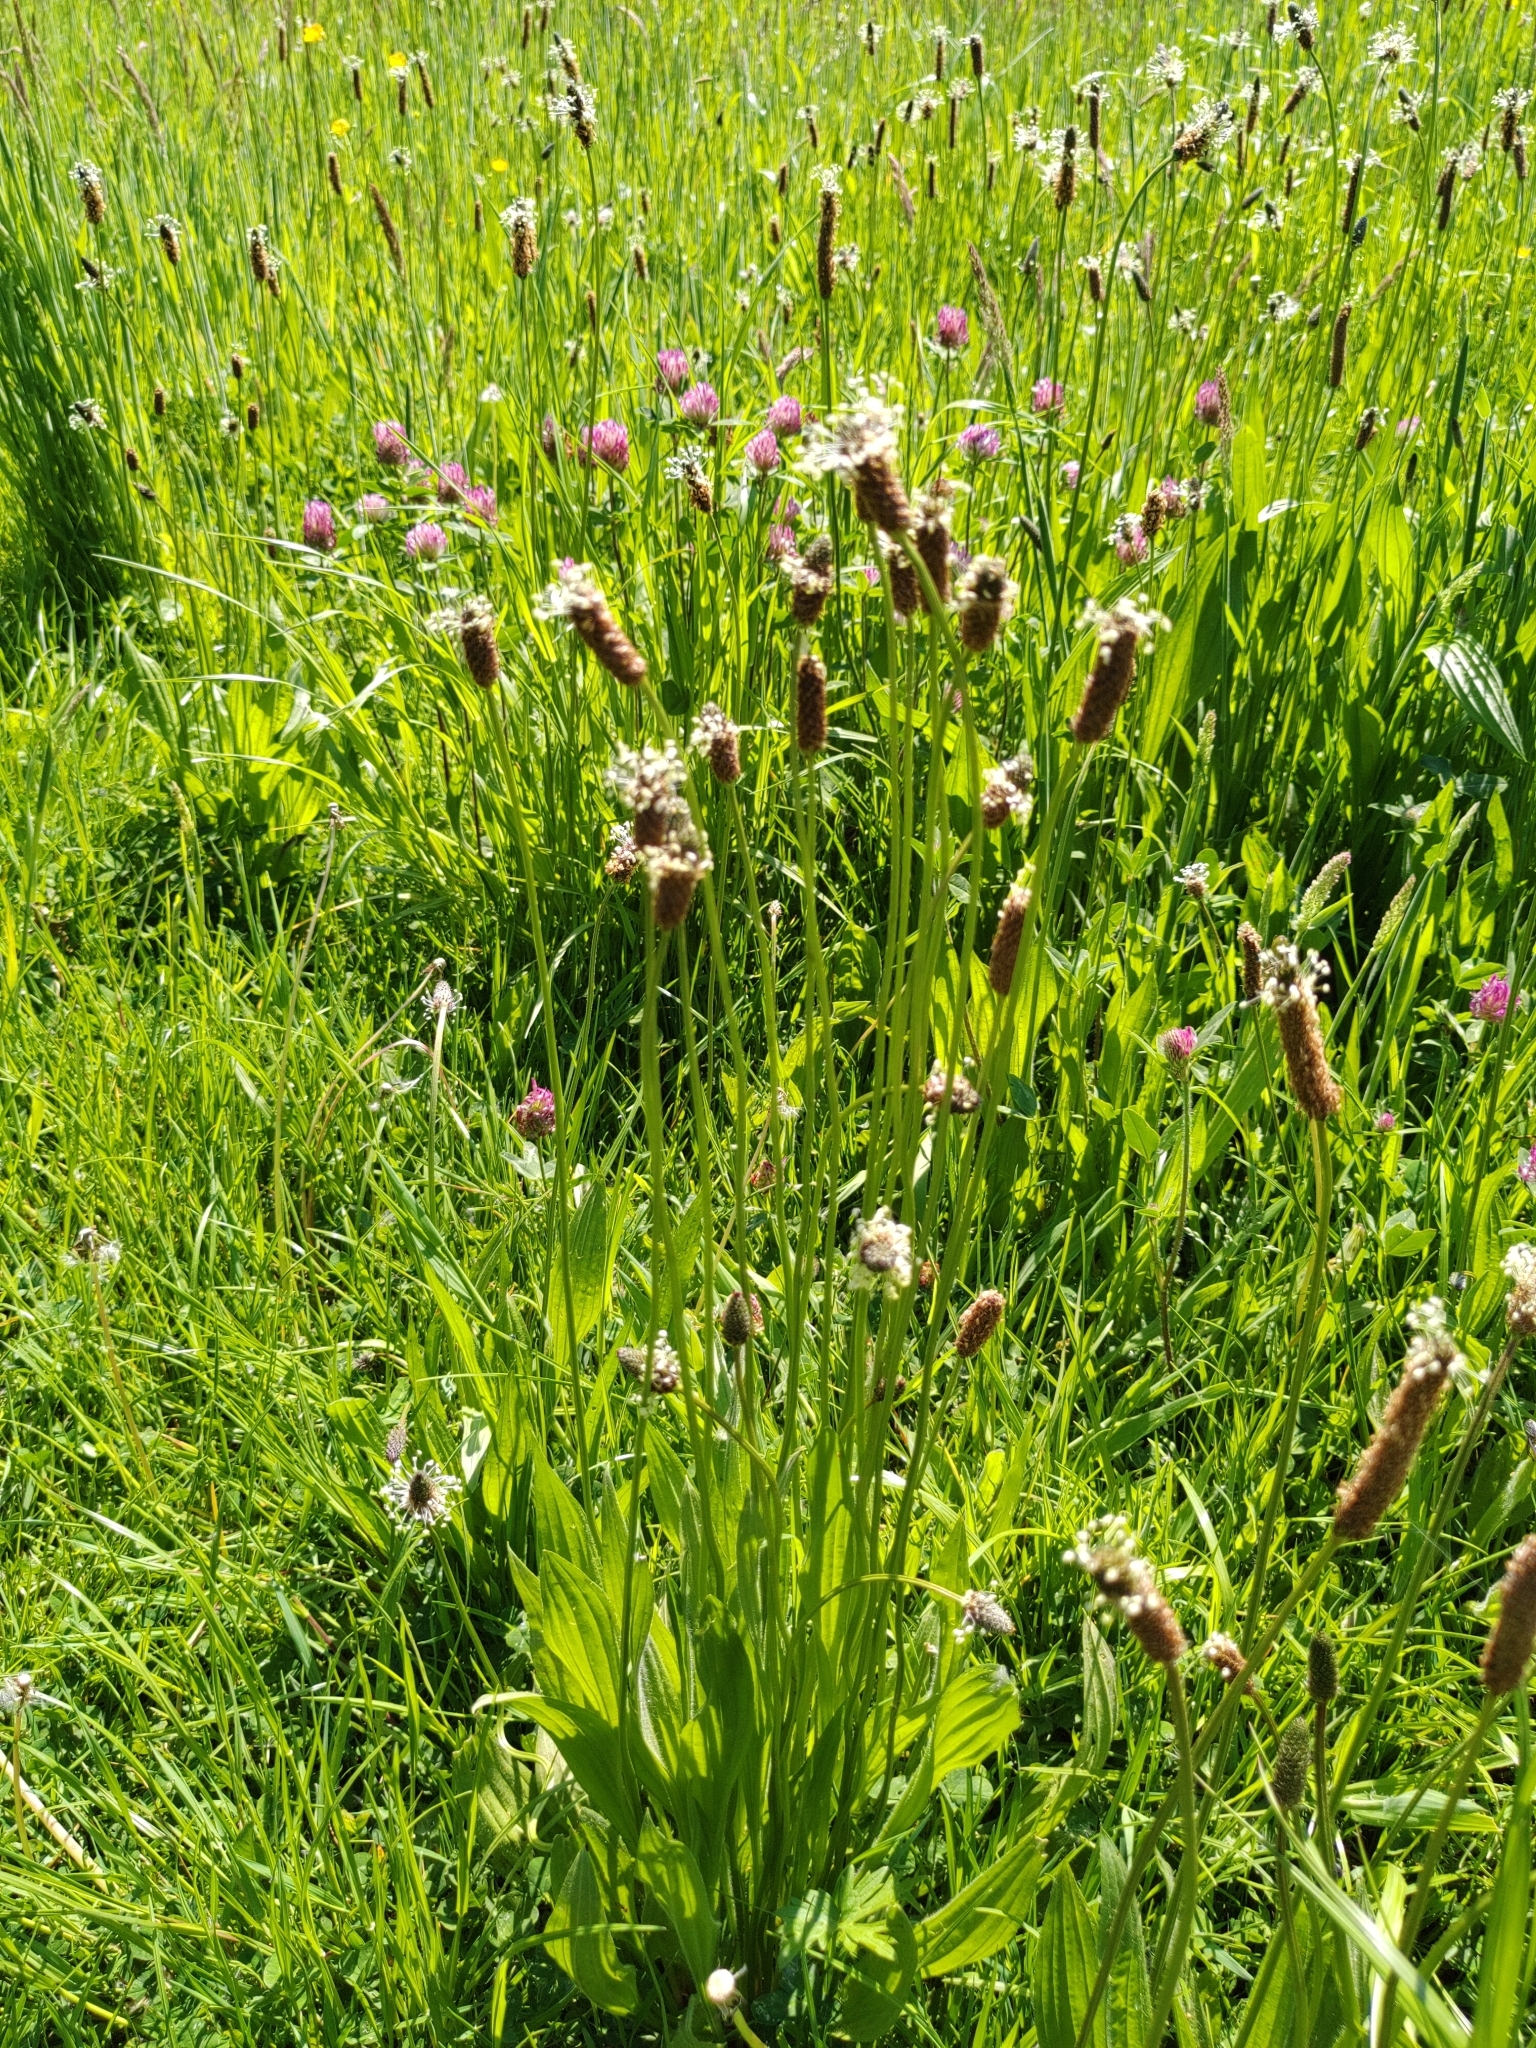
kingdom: Plantae
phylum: Tracheophyta
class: Magnoliopsida
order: Lamiales
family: Plantaginaceae
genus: Plantago
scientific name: Plantago lanceolata
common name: Ribwort plantain
